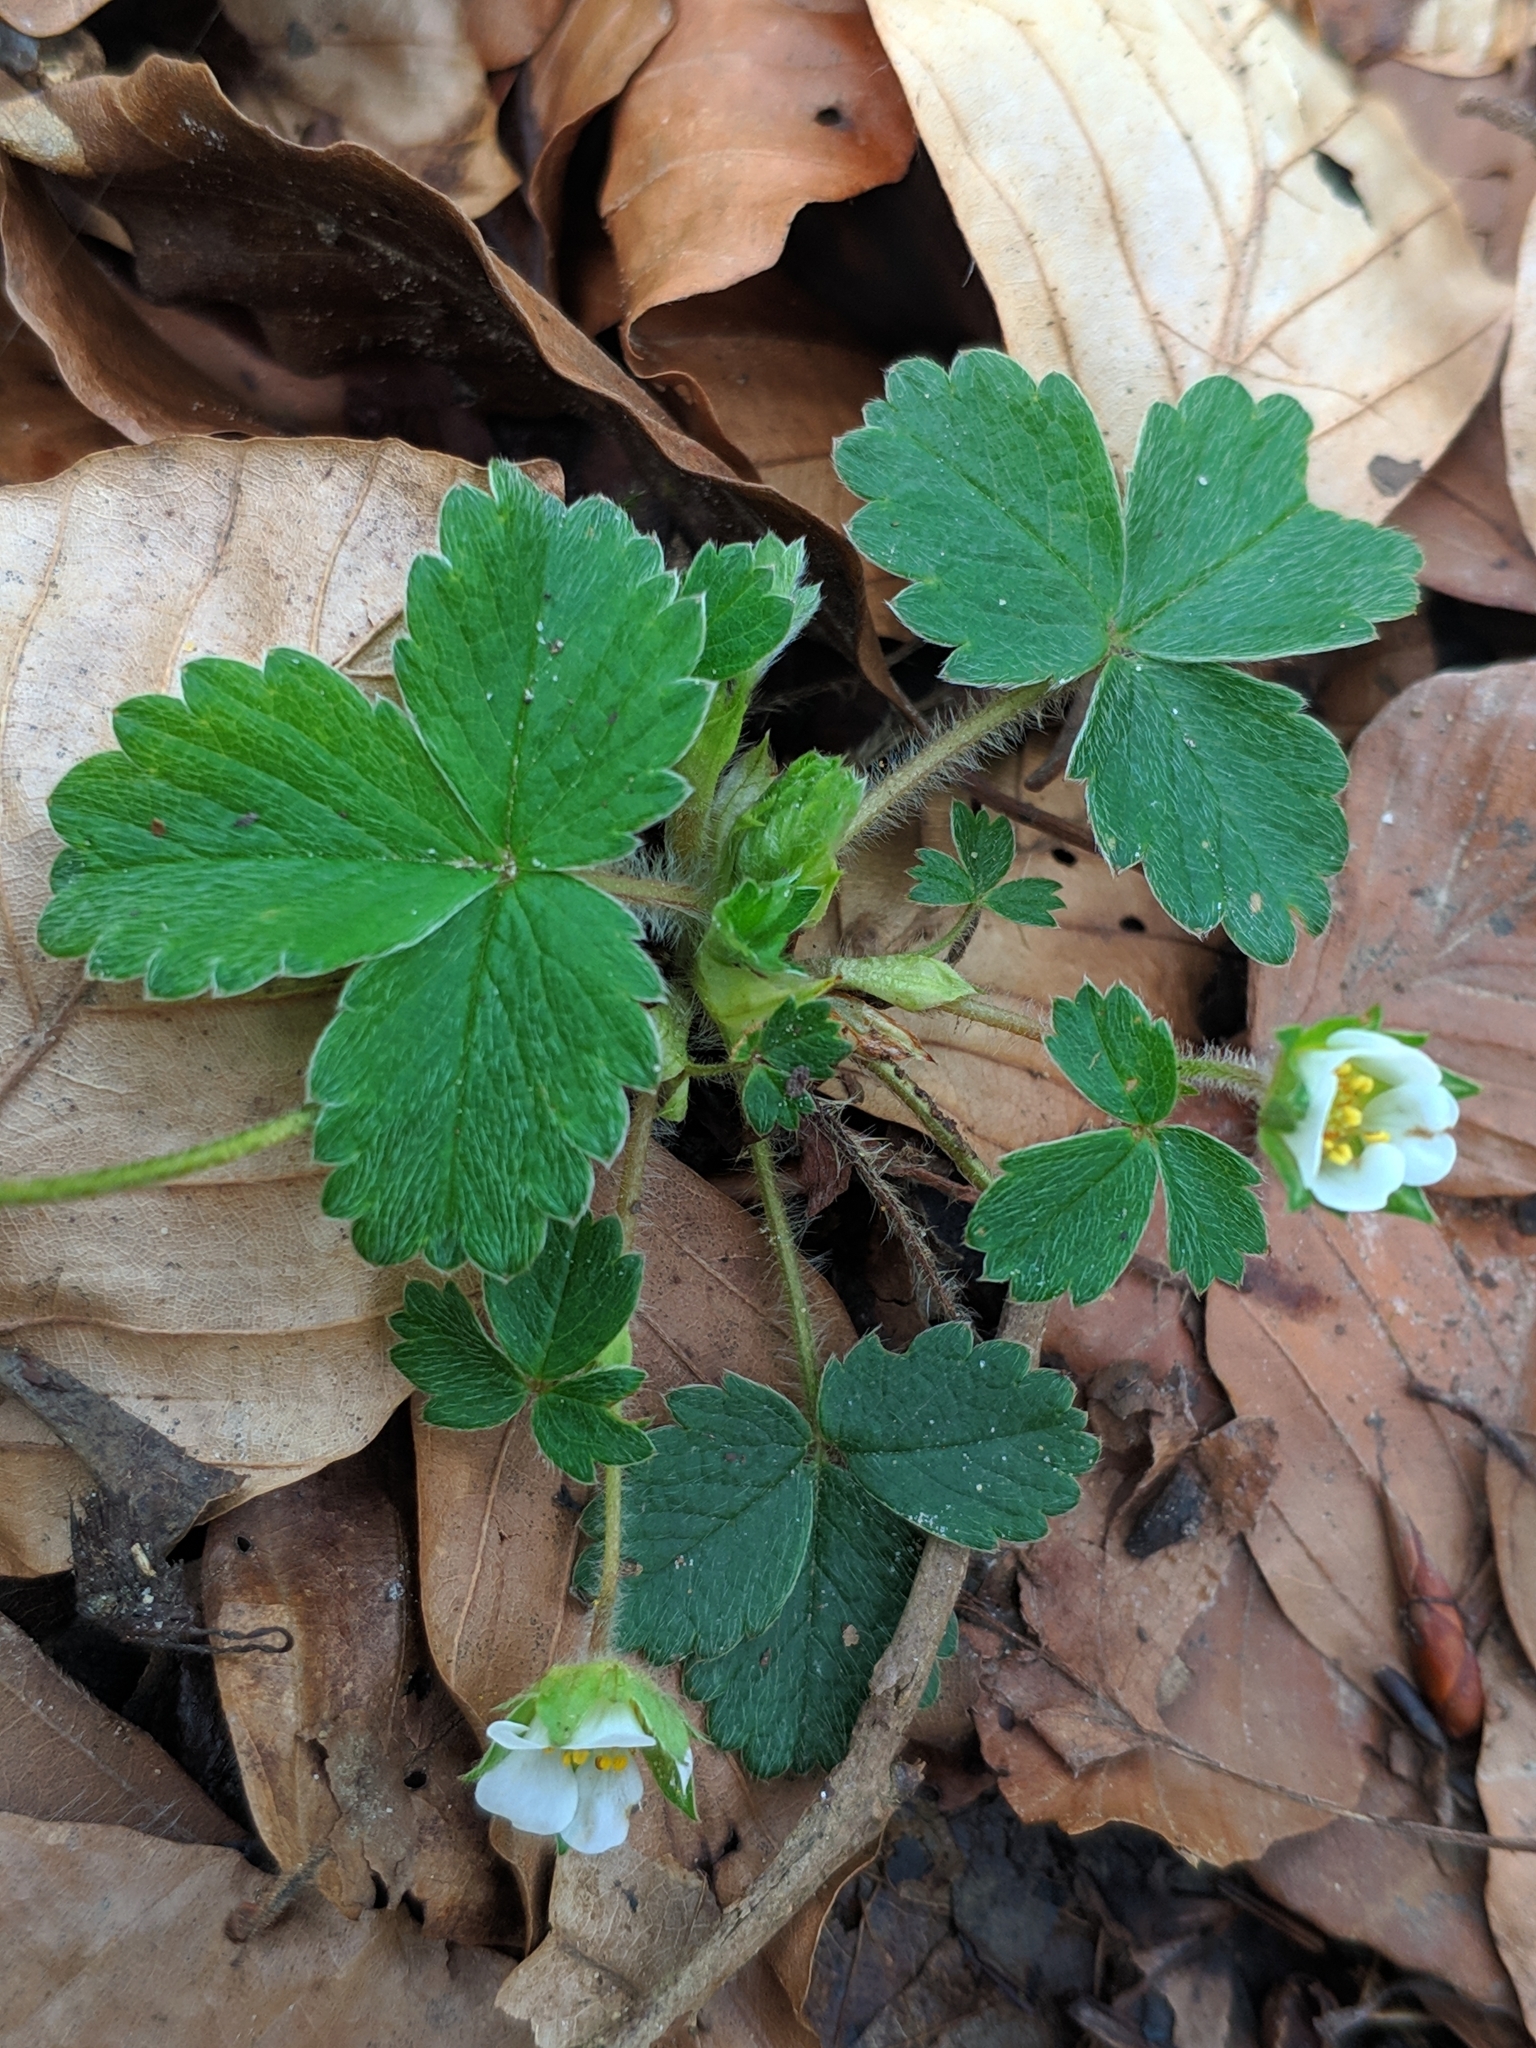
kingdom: Plantae
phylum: Tracheophyta
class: Magnoliopsida
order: Rosales
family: Rosaceae
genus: Potentilla
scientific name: Potentilla sterilis
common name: Barren strawberry
